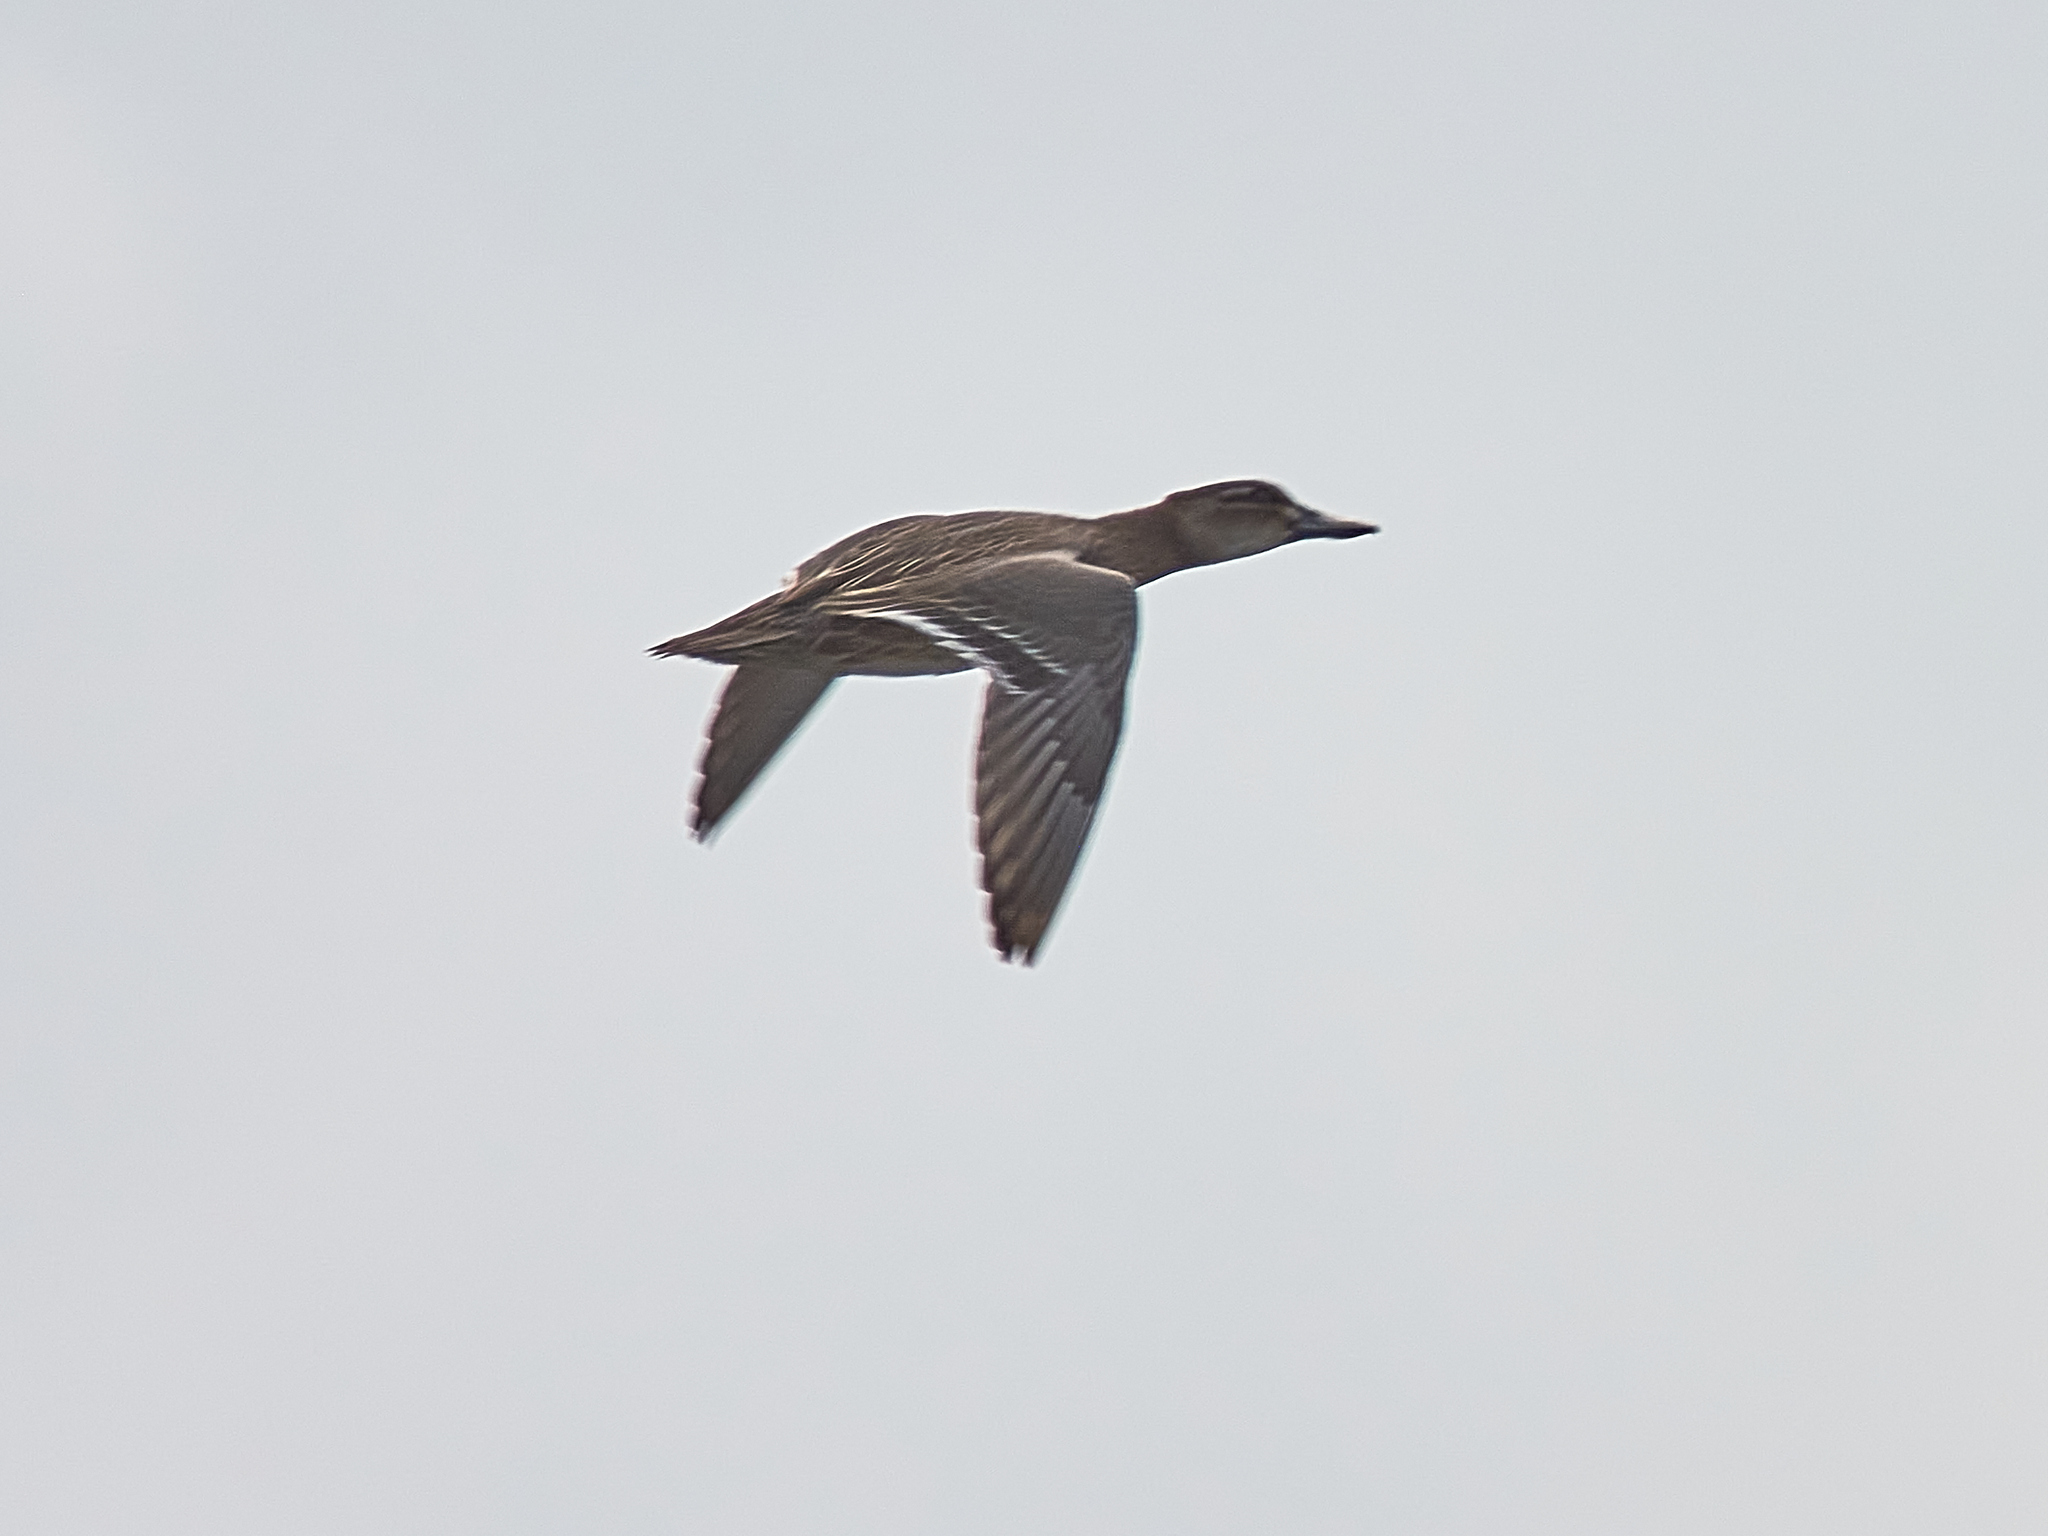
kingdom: Animalia
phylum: Chordata
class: Aves
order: Anseriformes
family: Anatidae
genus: Spatula
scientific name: Spatula querquedula
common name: Garganey
